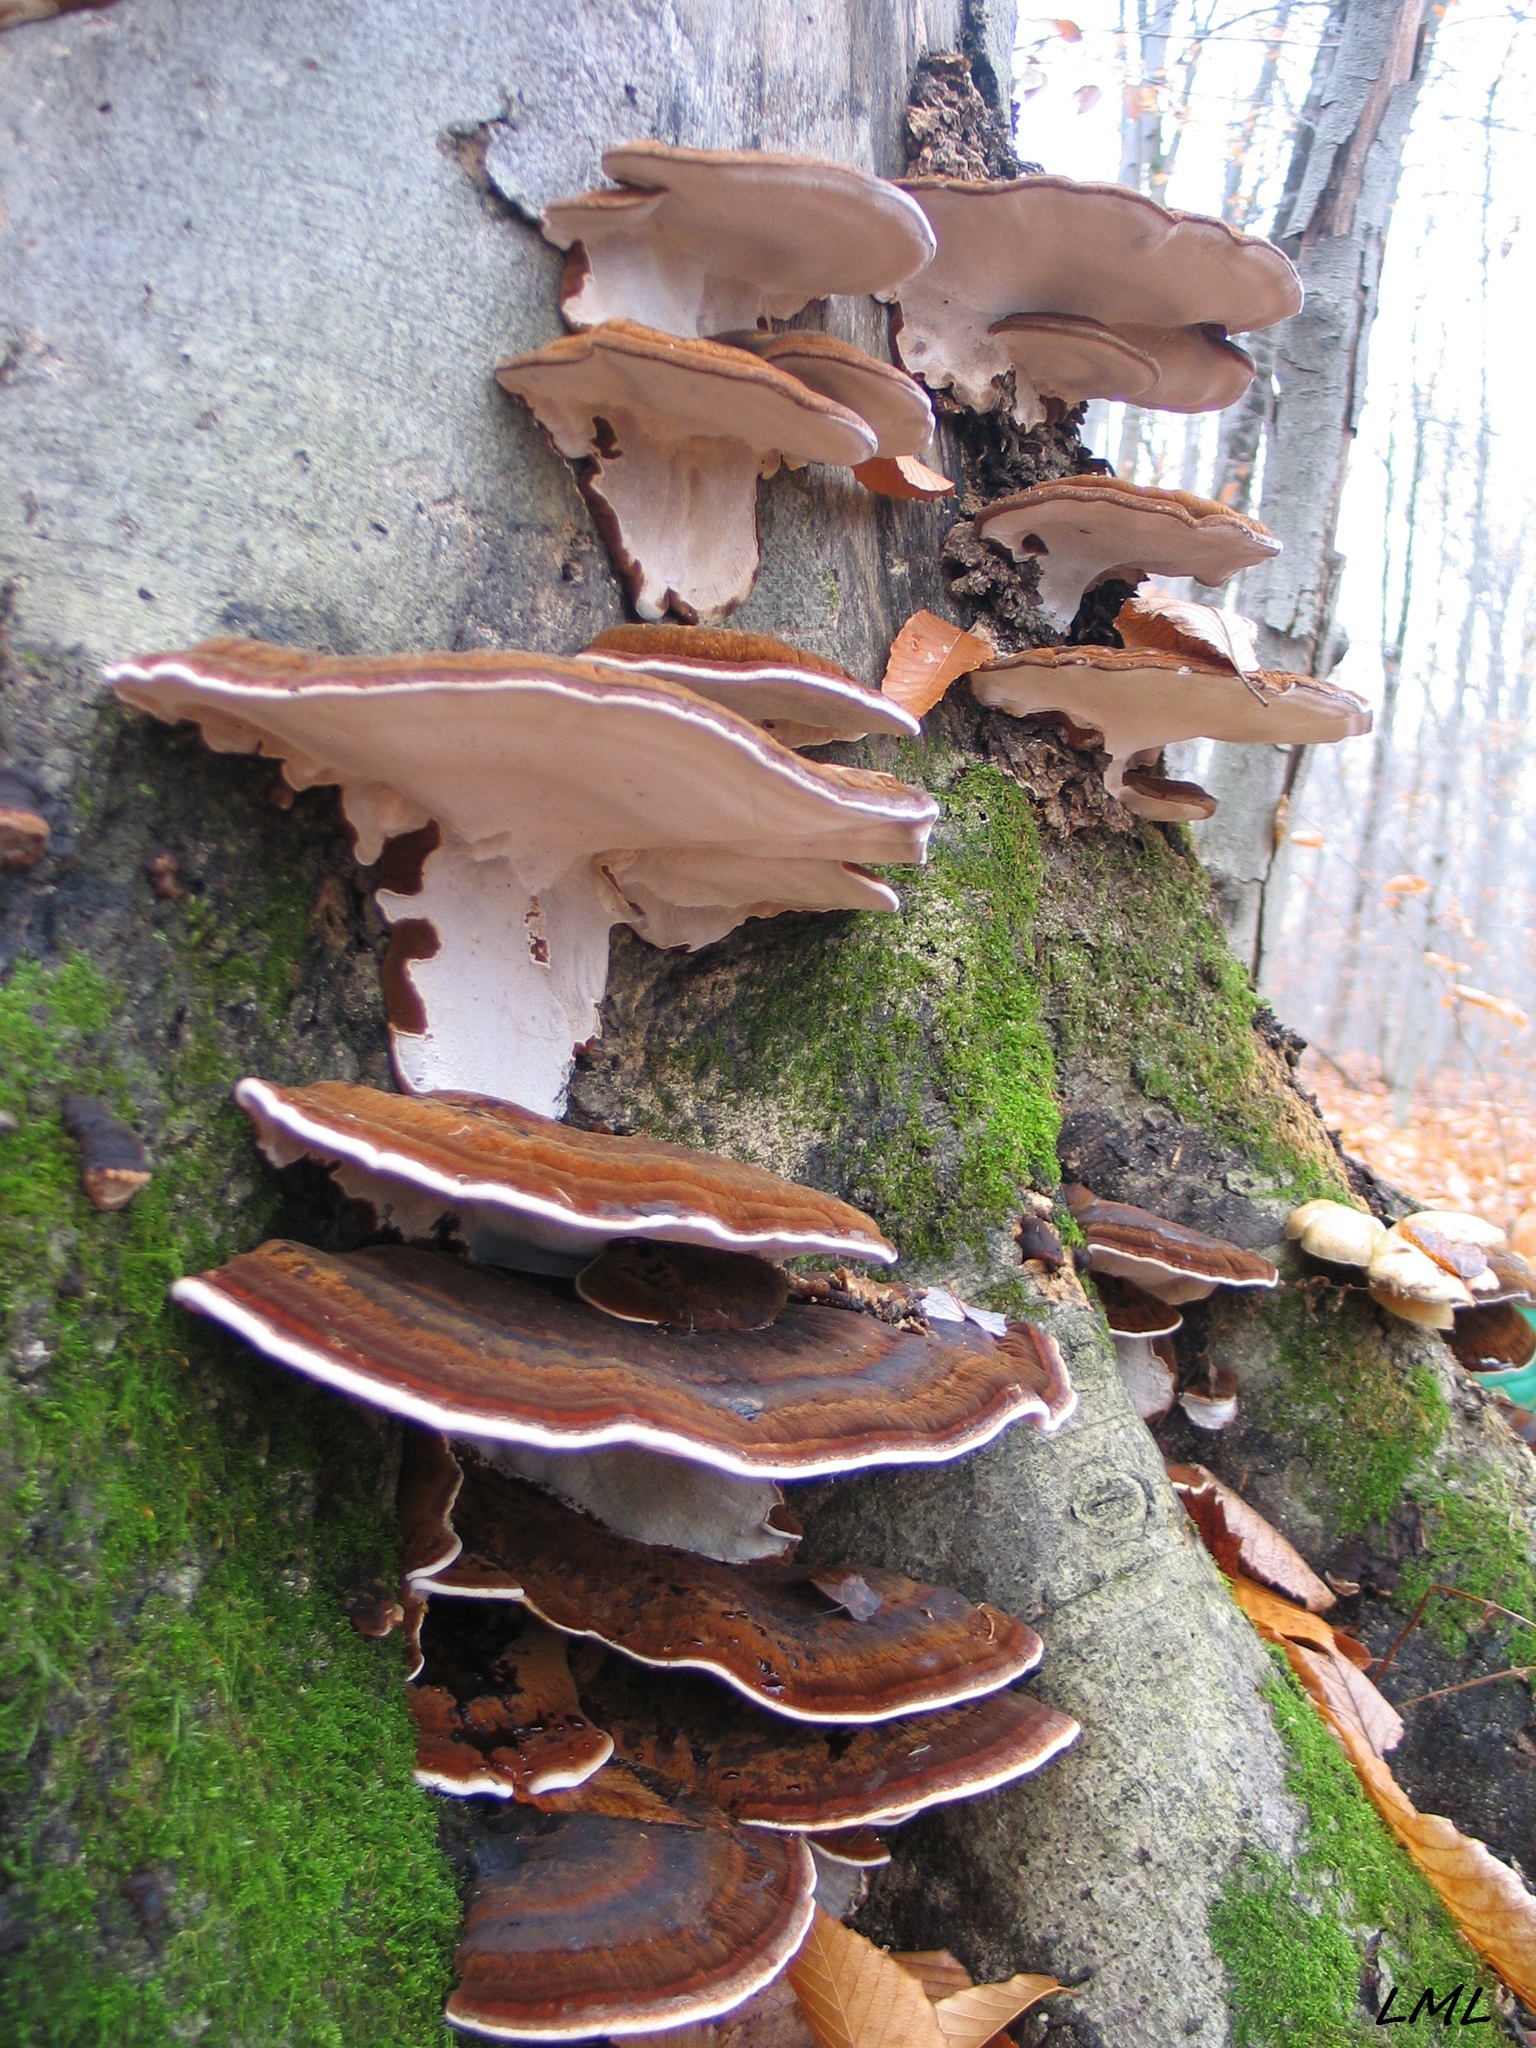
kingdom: Fungi
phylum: Basidiomycota
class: Agaricomycetes
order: Polyporales
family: Ischnodermataceae
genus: Ischnoderma
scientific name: Ischnoderma resinosum
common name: Resinous polypore
